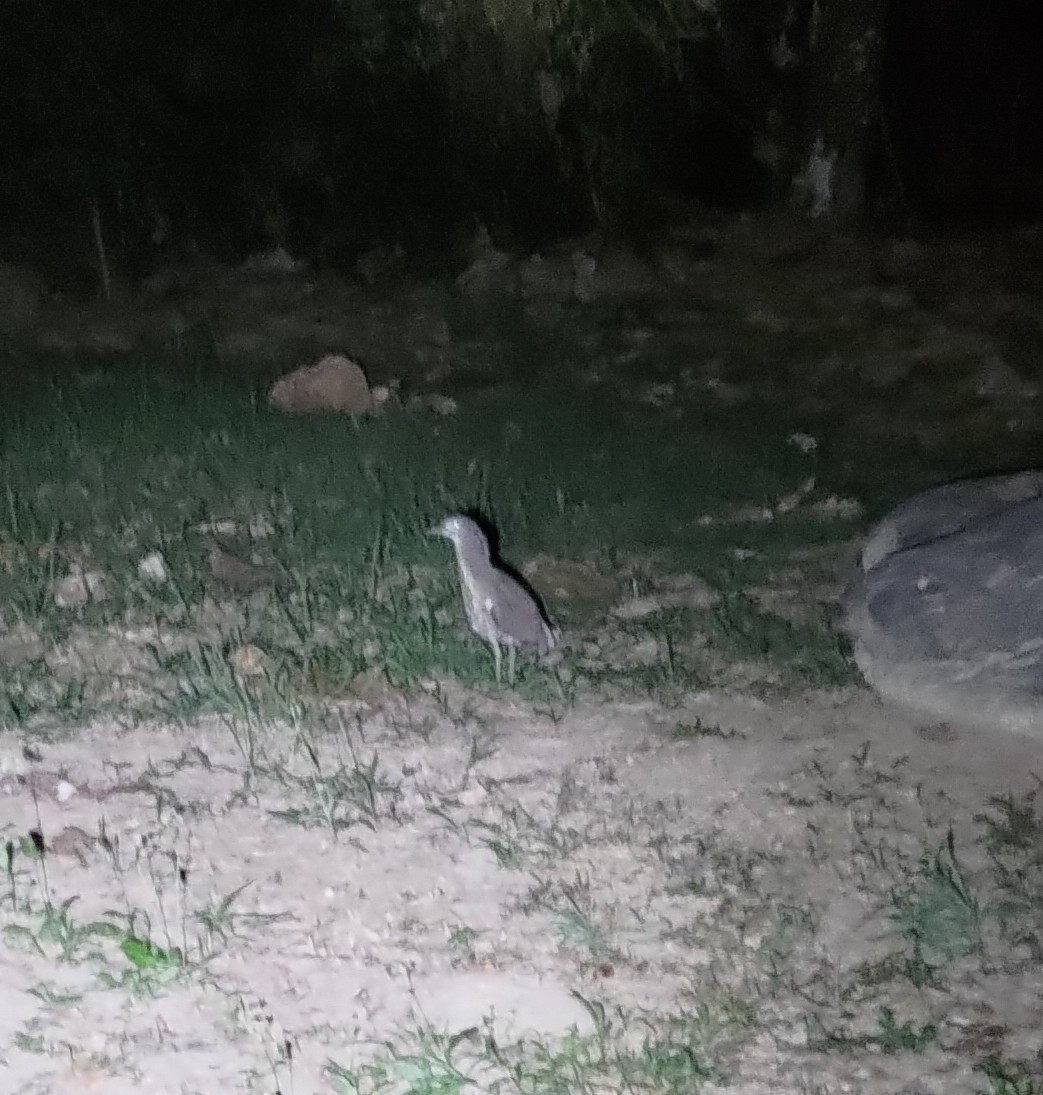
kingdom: Animalia
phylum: Chordata
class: Aves
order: Pelecaniformes
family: Ardeidae
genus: Gorsachius
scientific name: Gorsachius melanolophus
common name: Malayan night heron
